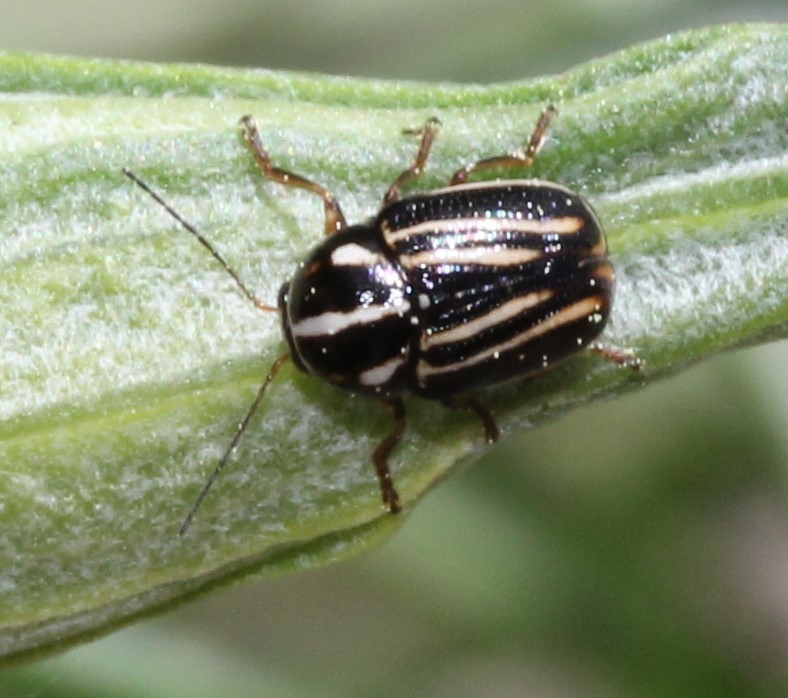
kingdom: Animalia
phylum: Arthropoda
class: Insecta
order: Coleoptera
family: Chrysomelidae
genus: Cryptocephalus
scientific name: Cryptocephalus amatus
